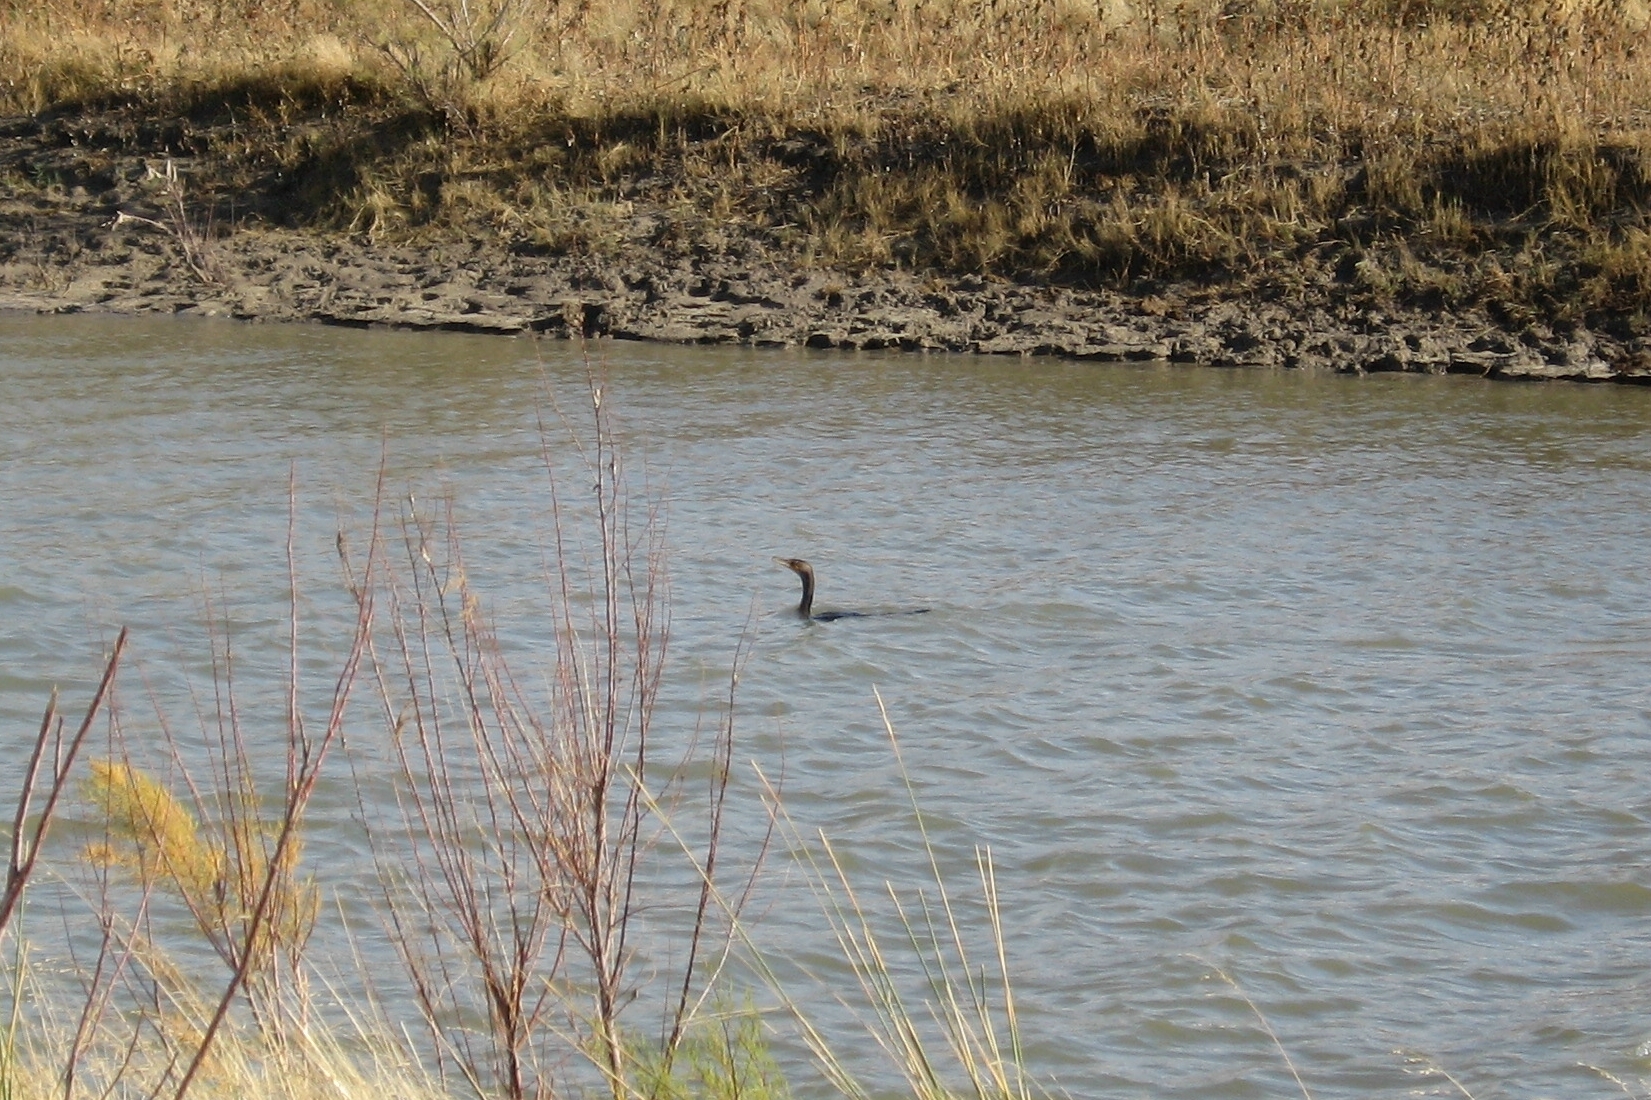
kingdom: Animalia
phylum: Chordata
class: Aves
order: Suliformes
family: Phalacrocoracidae
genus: Phalacrocorax
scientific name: Phalacrocorax auritus
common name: Double-crested cormorant
